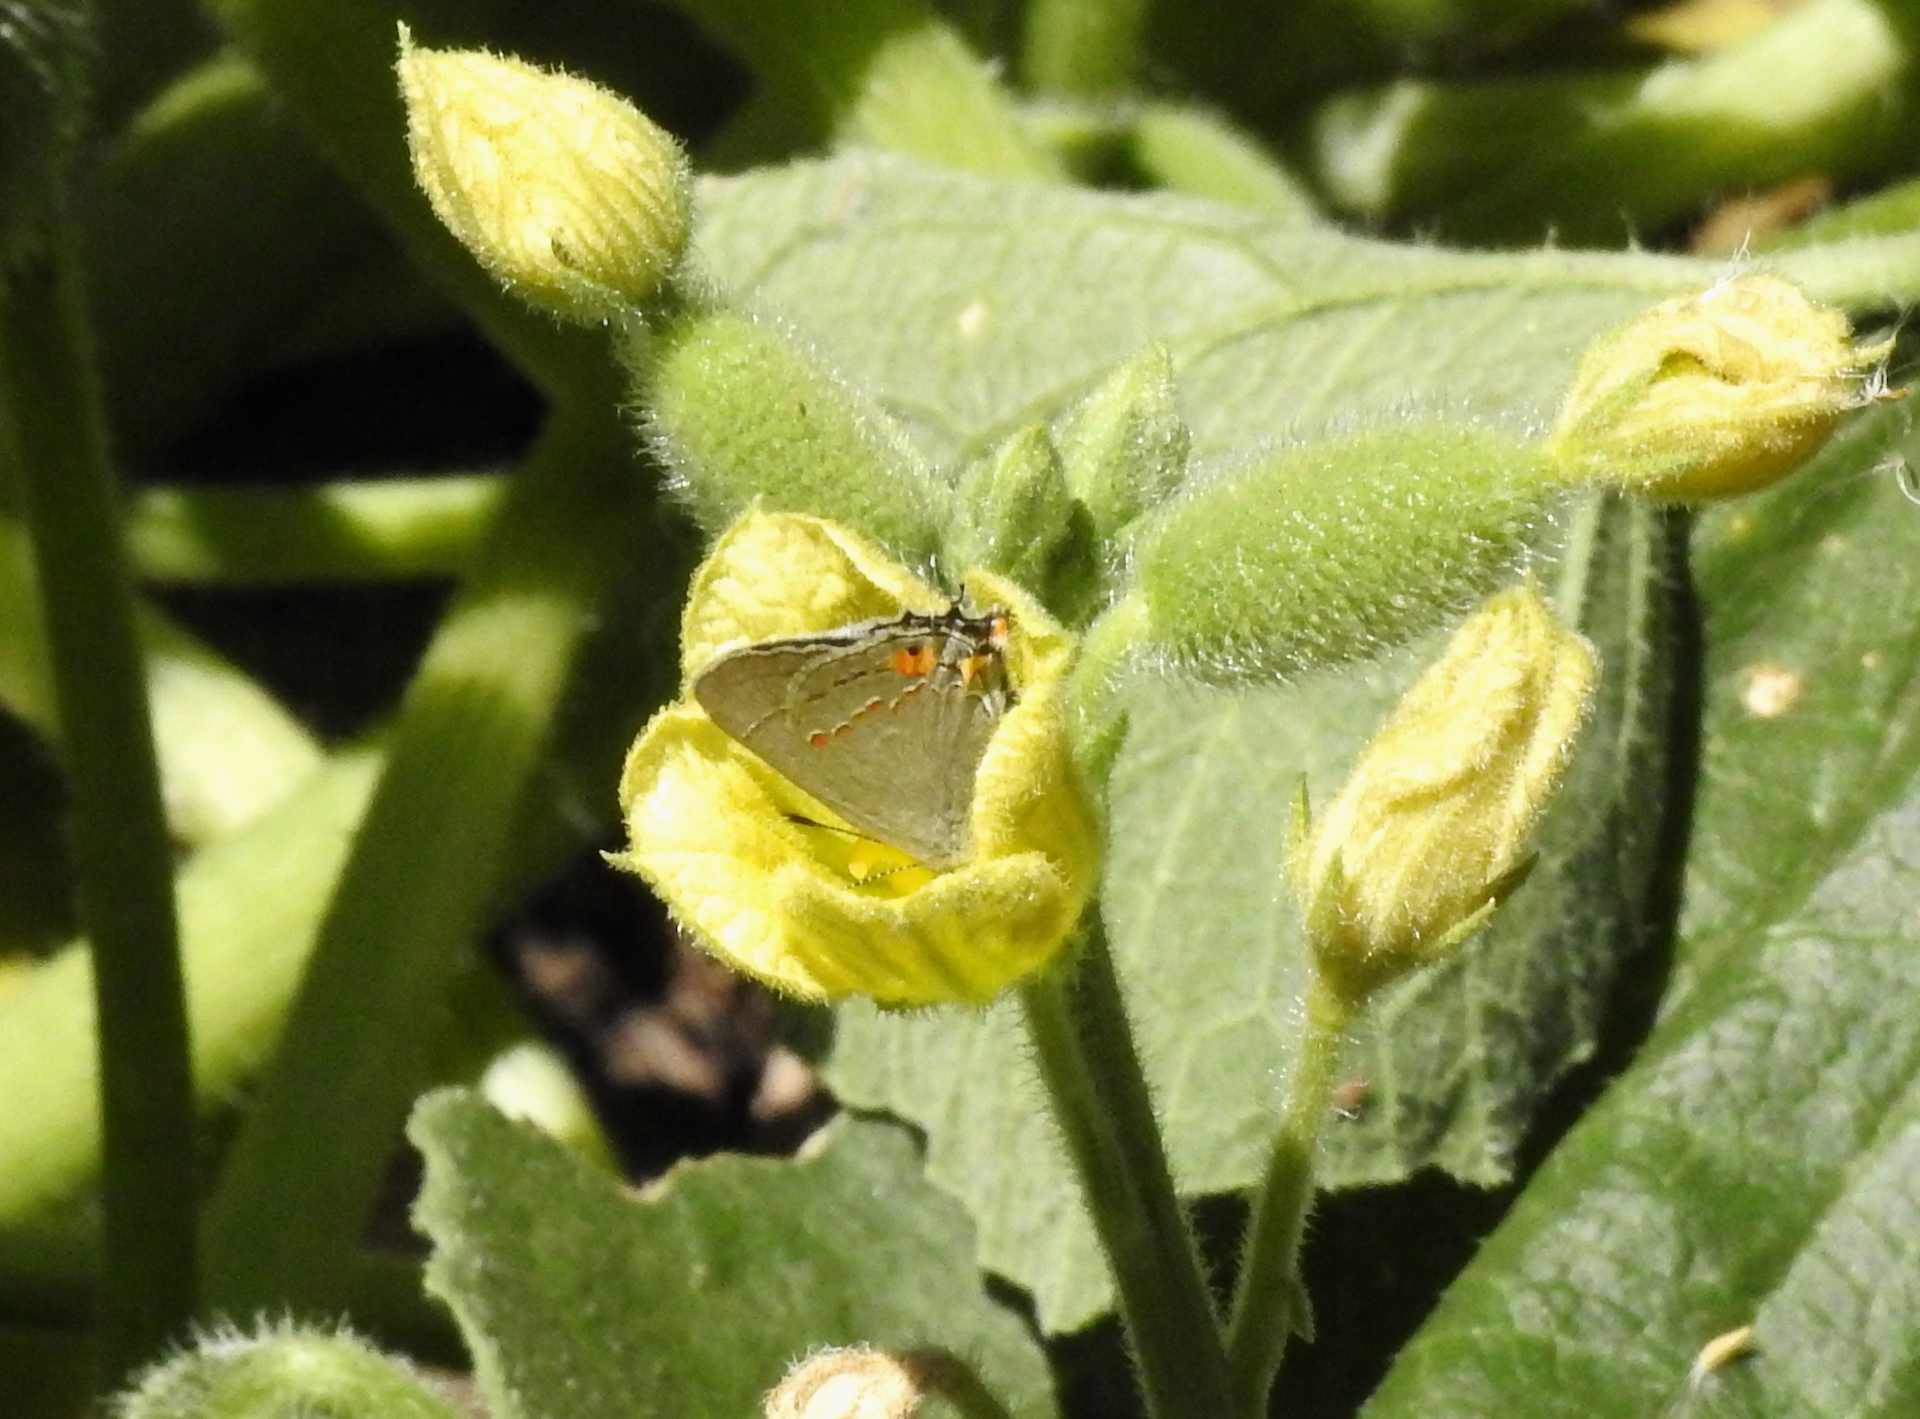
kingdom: Animalia
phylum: Arthropoda
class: Insecta
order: Lepidoptera
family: Lycaenidae
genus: Strymon
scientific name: Strymon melinus
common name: Gray hairstreak
